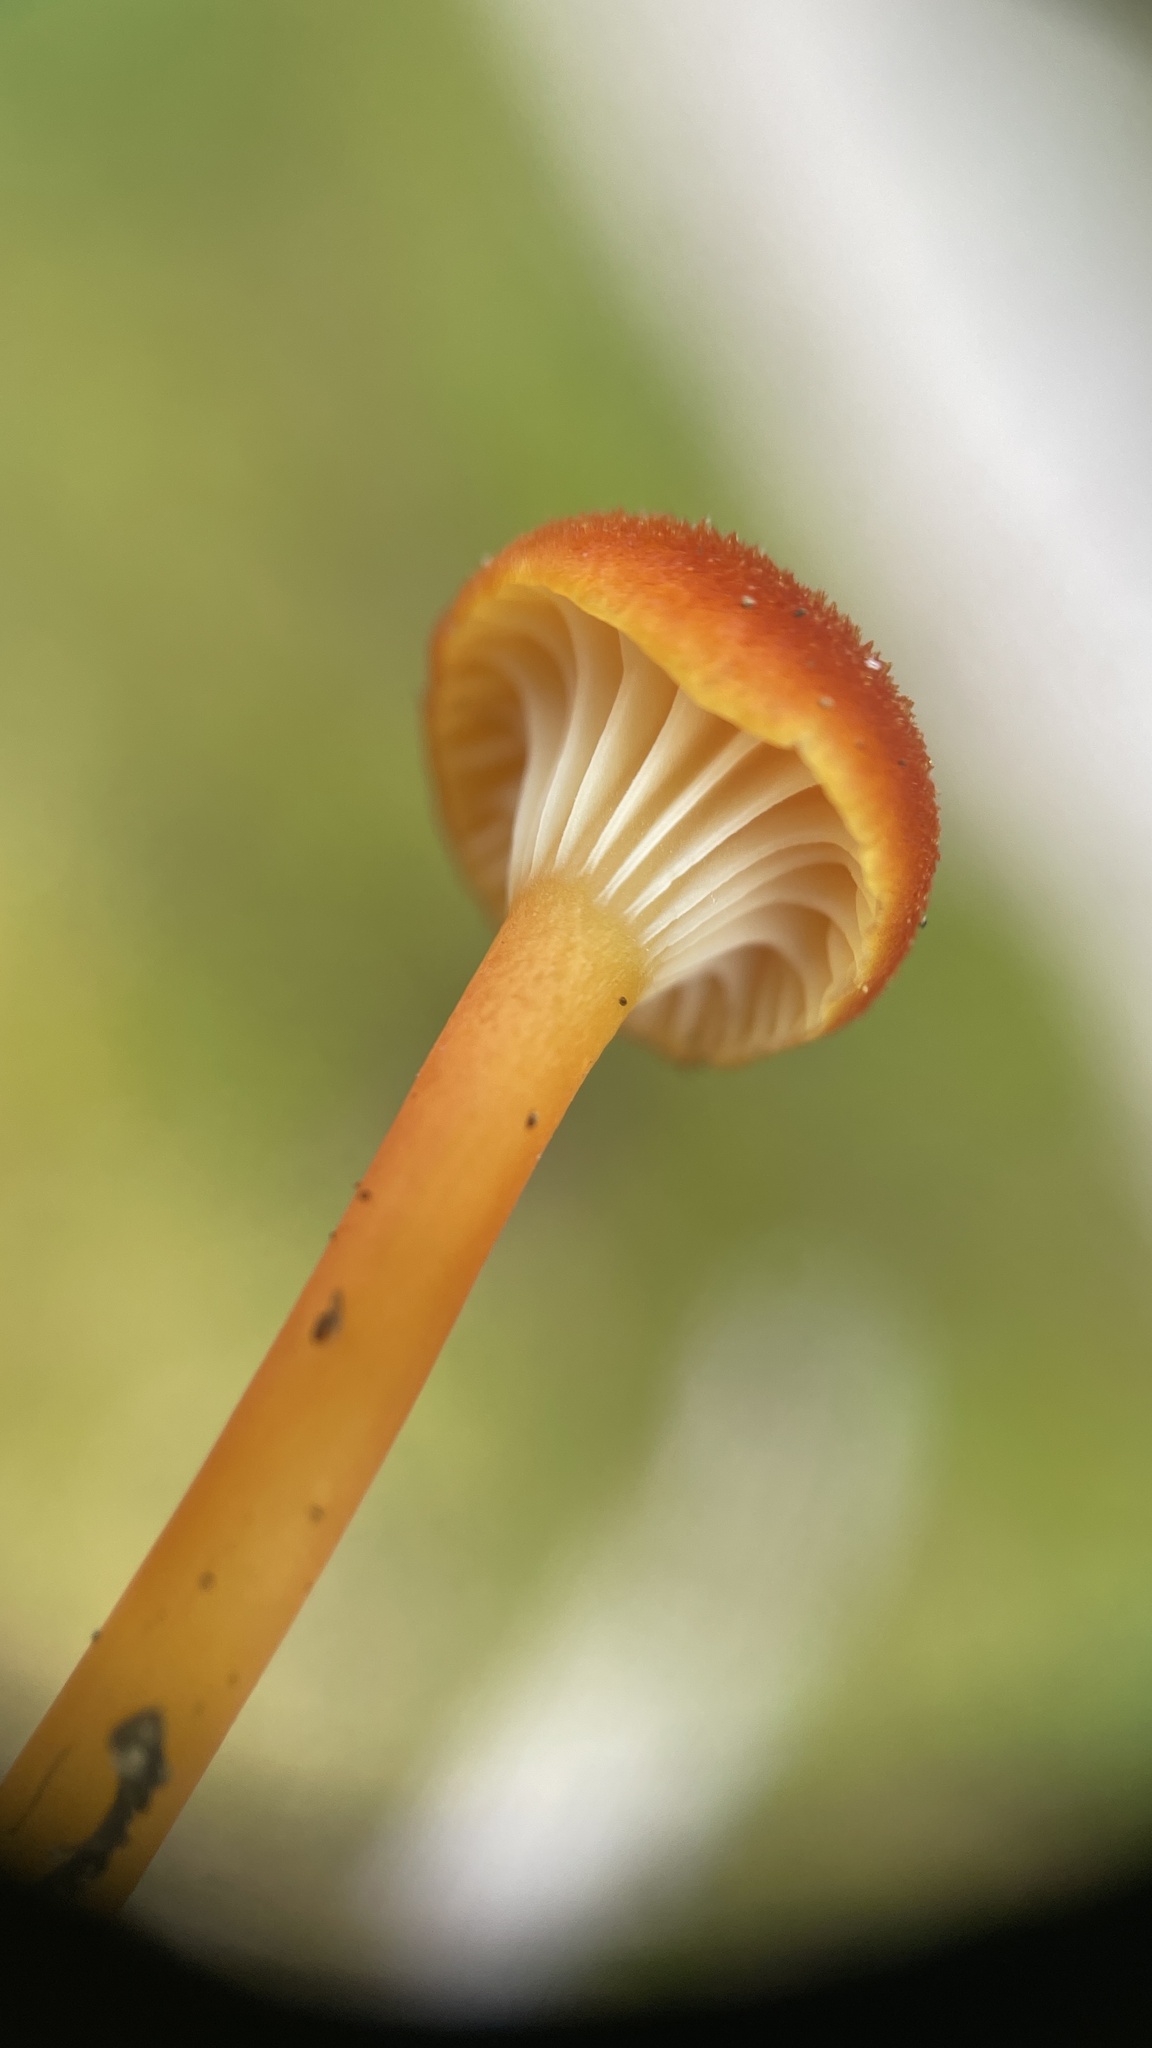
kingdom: Fungi
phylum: Basidiomycota
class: Agaricomycetes
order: Agaricales
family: Hygrophoraceae
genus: Hygrocybe
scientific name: Hygrocybe cantharellus
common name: Goblet waxcap
